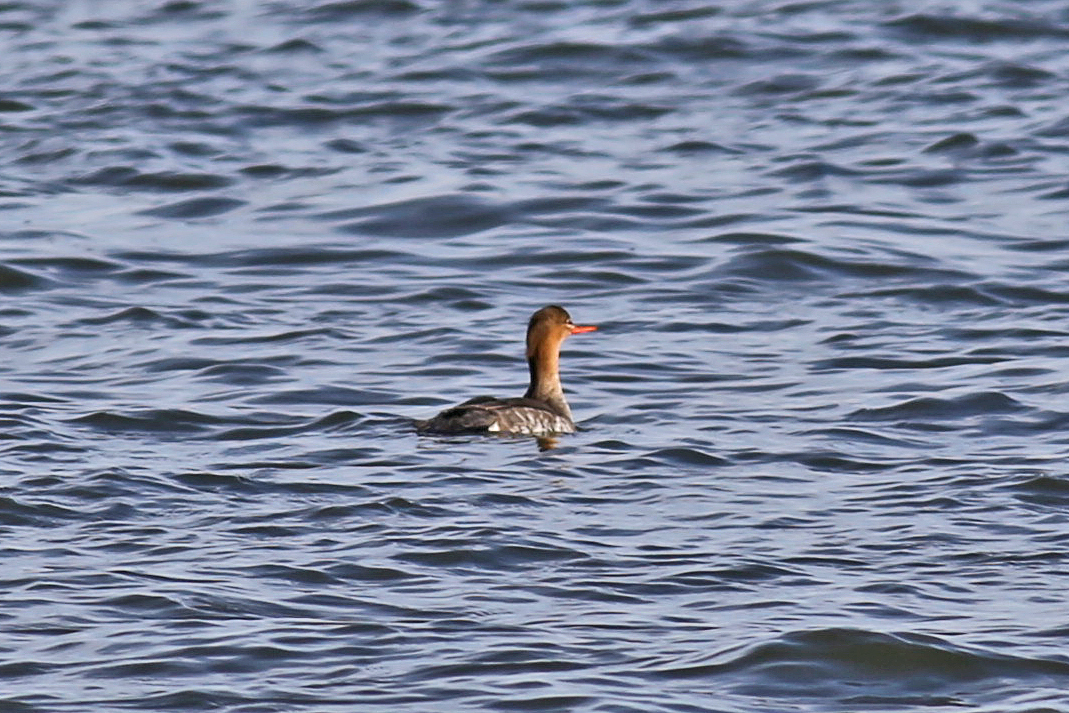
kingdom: Animalia
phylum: Chordata
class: Aves
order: Anseriformes
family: Anatidae
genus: Mergus
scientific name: Mergus serrator
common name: Red-breasted merganser
